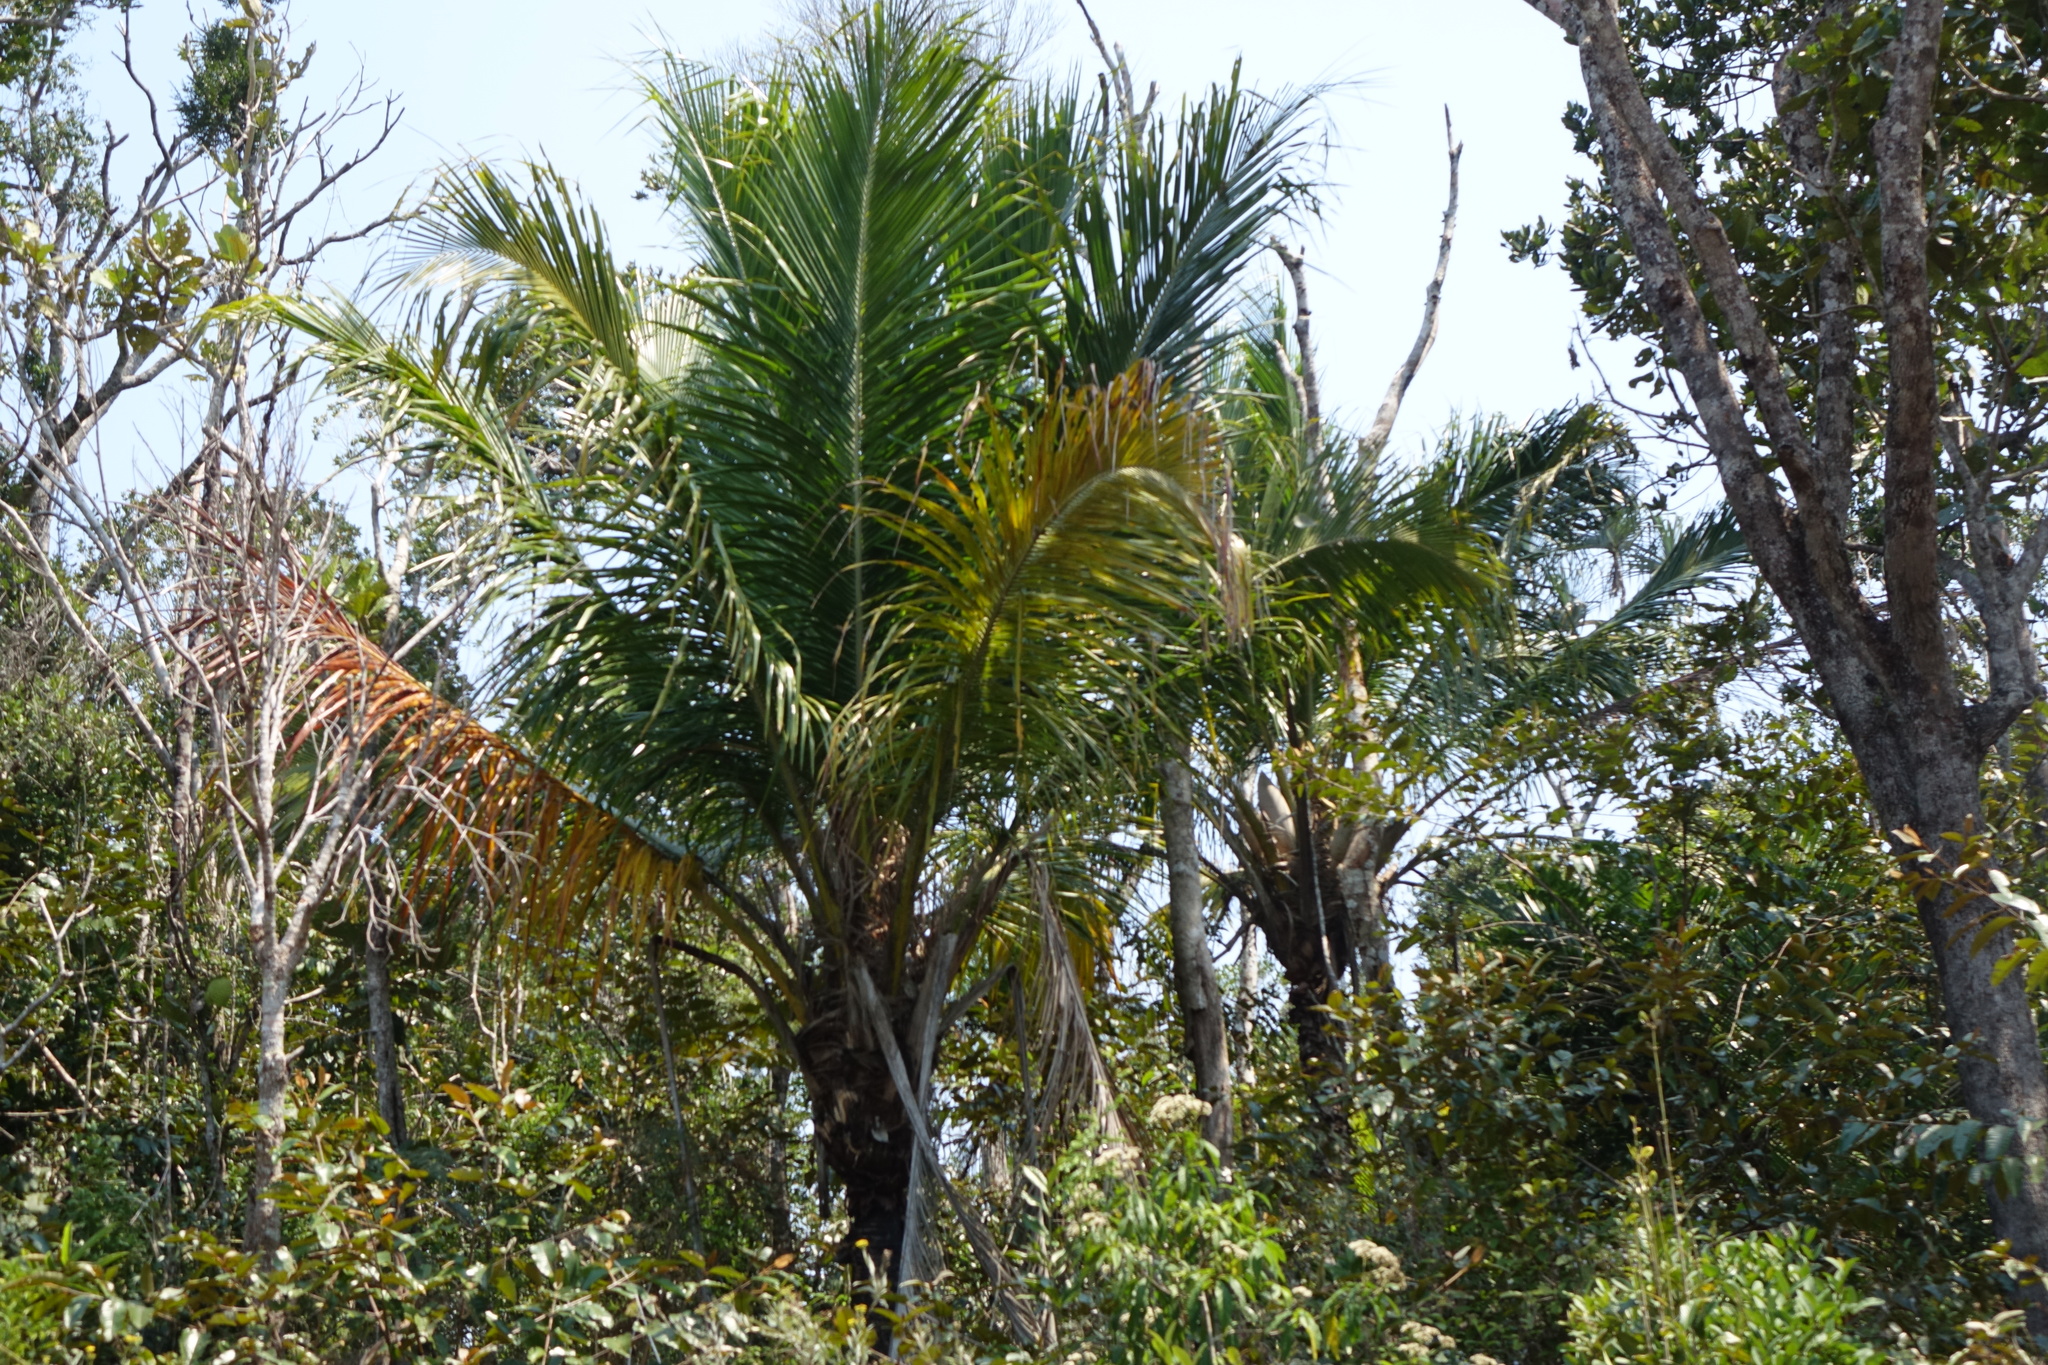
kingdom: Plantae
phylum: Tracheophyta
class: Liliopsida
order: Arecales
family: Arecaceae
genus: Beccariophoenix
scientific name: Beccariophoenix madagascariensis
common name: Manarano palm
